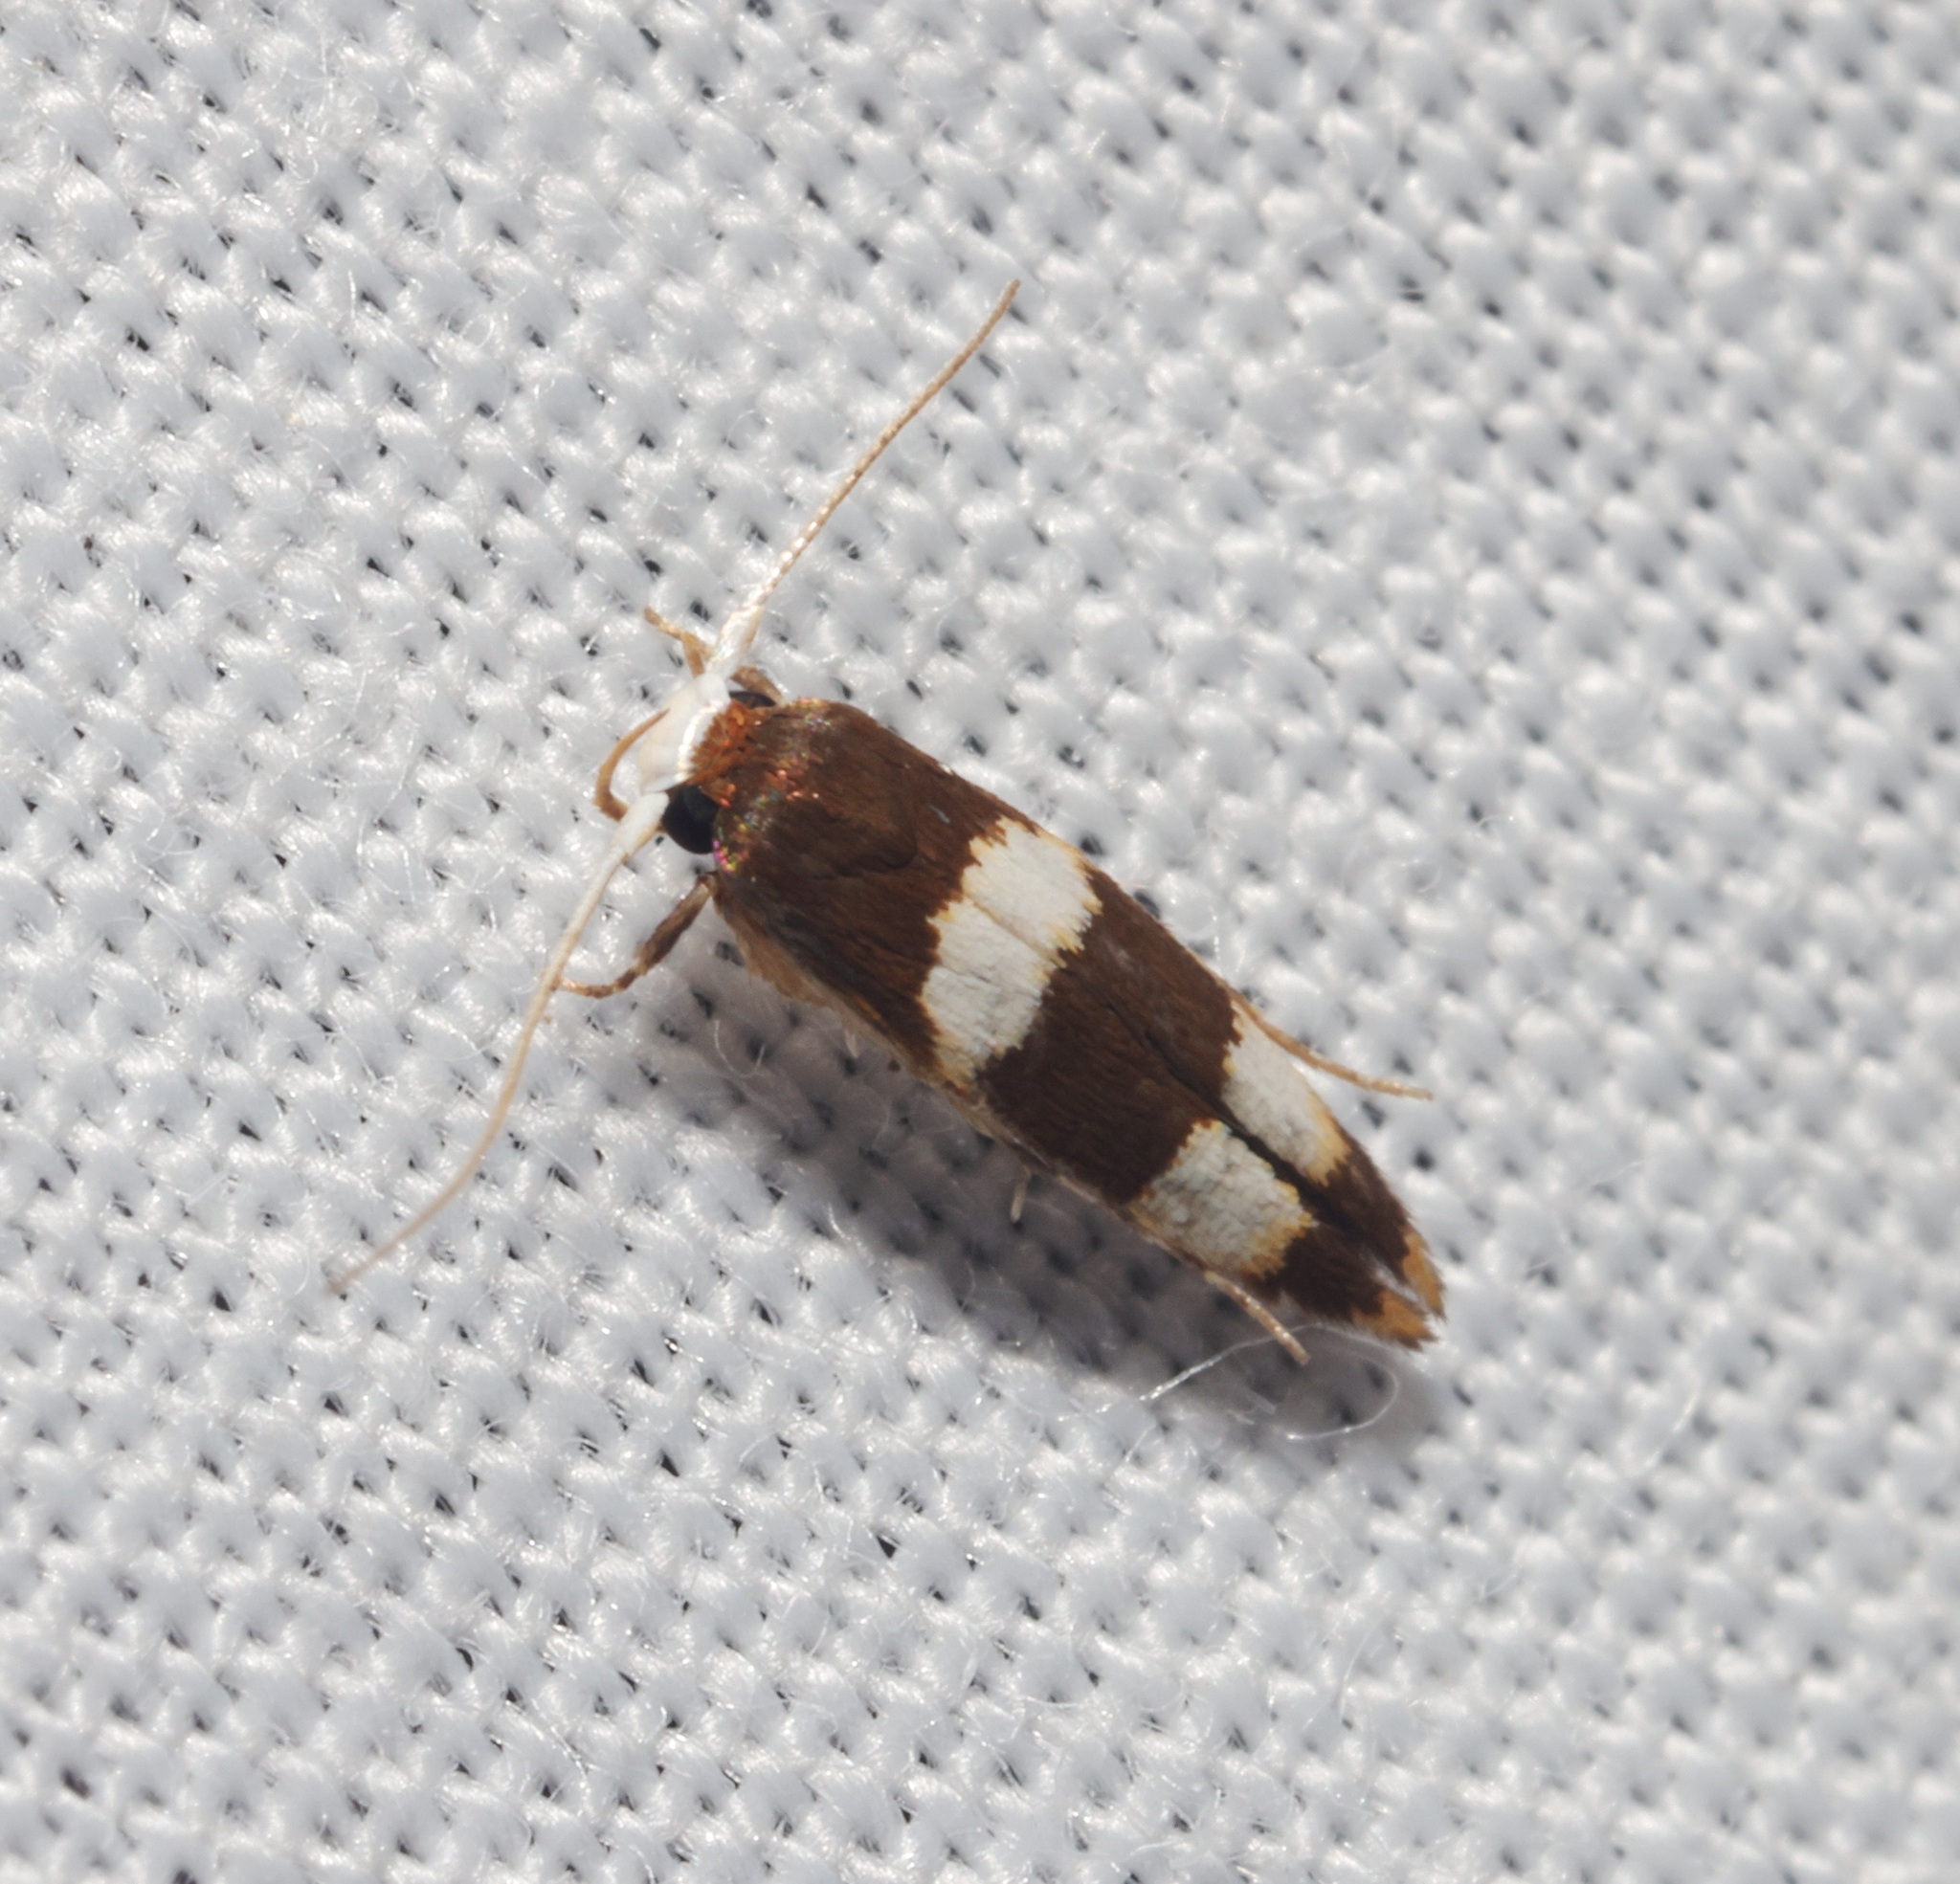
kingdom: Animalia
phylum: Arthropoda
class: Insecta
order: Lepidoptera
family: Stathmopodidae
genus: Stathmopoda
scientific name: Stathmopoda
